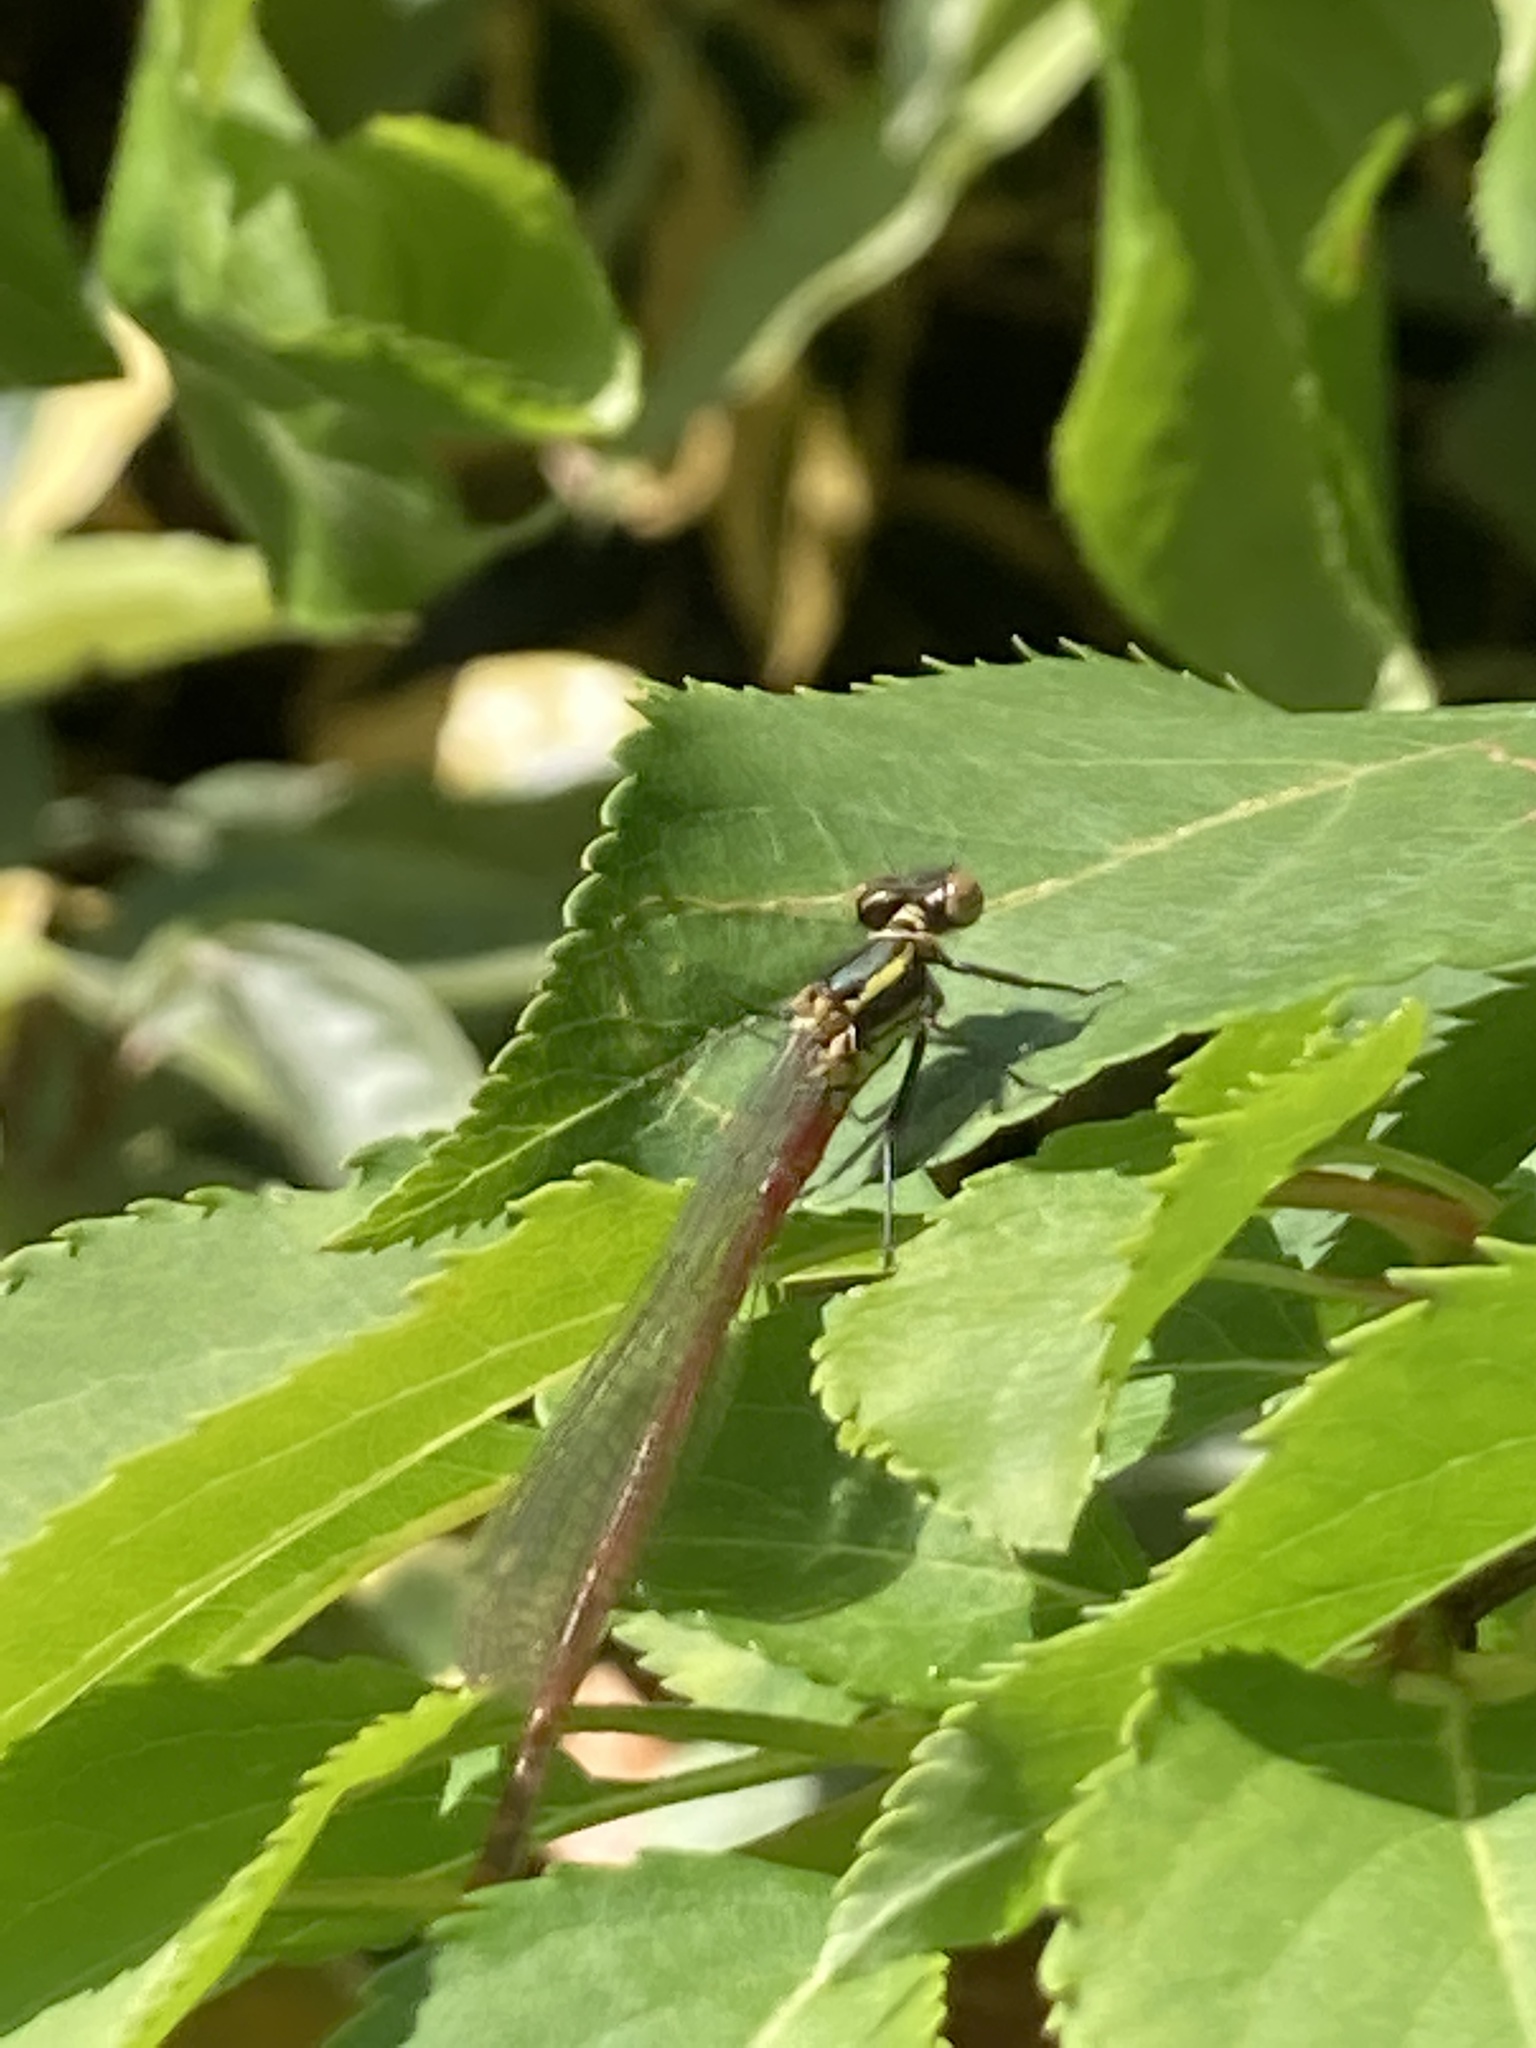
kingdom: Animalia
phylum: Arthropoda
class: Insecta
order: Odonata
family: Coenagrionidae
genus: Pyrrhosoma
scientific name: Pyrrhosoma nymphula
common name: Large red damsel
